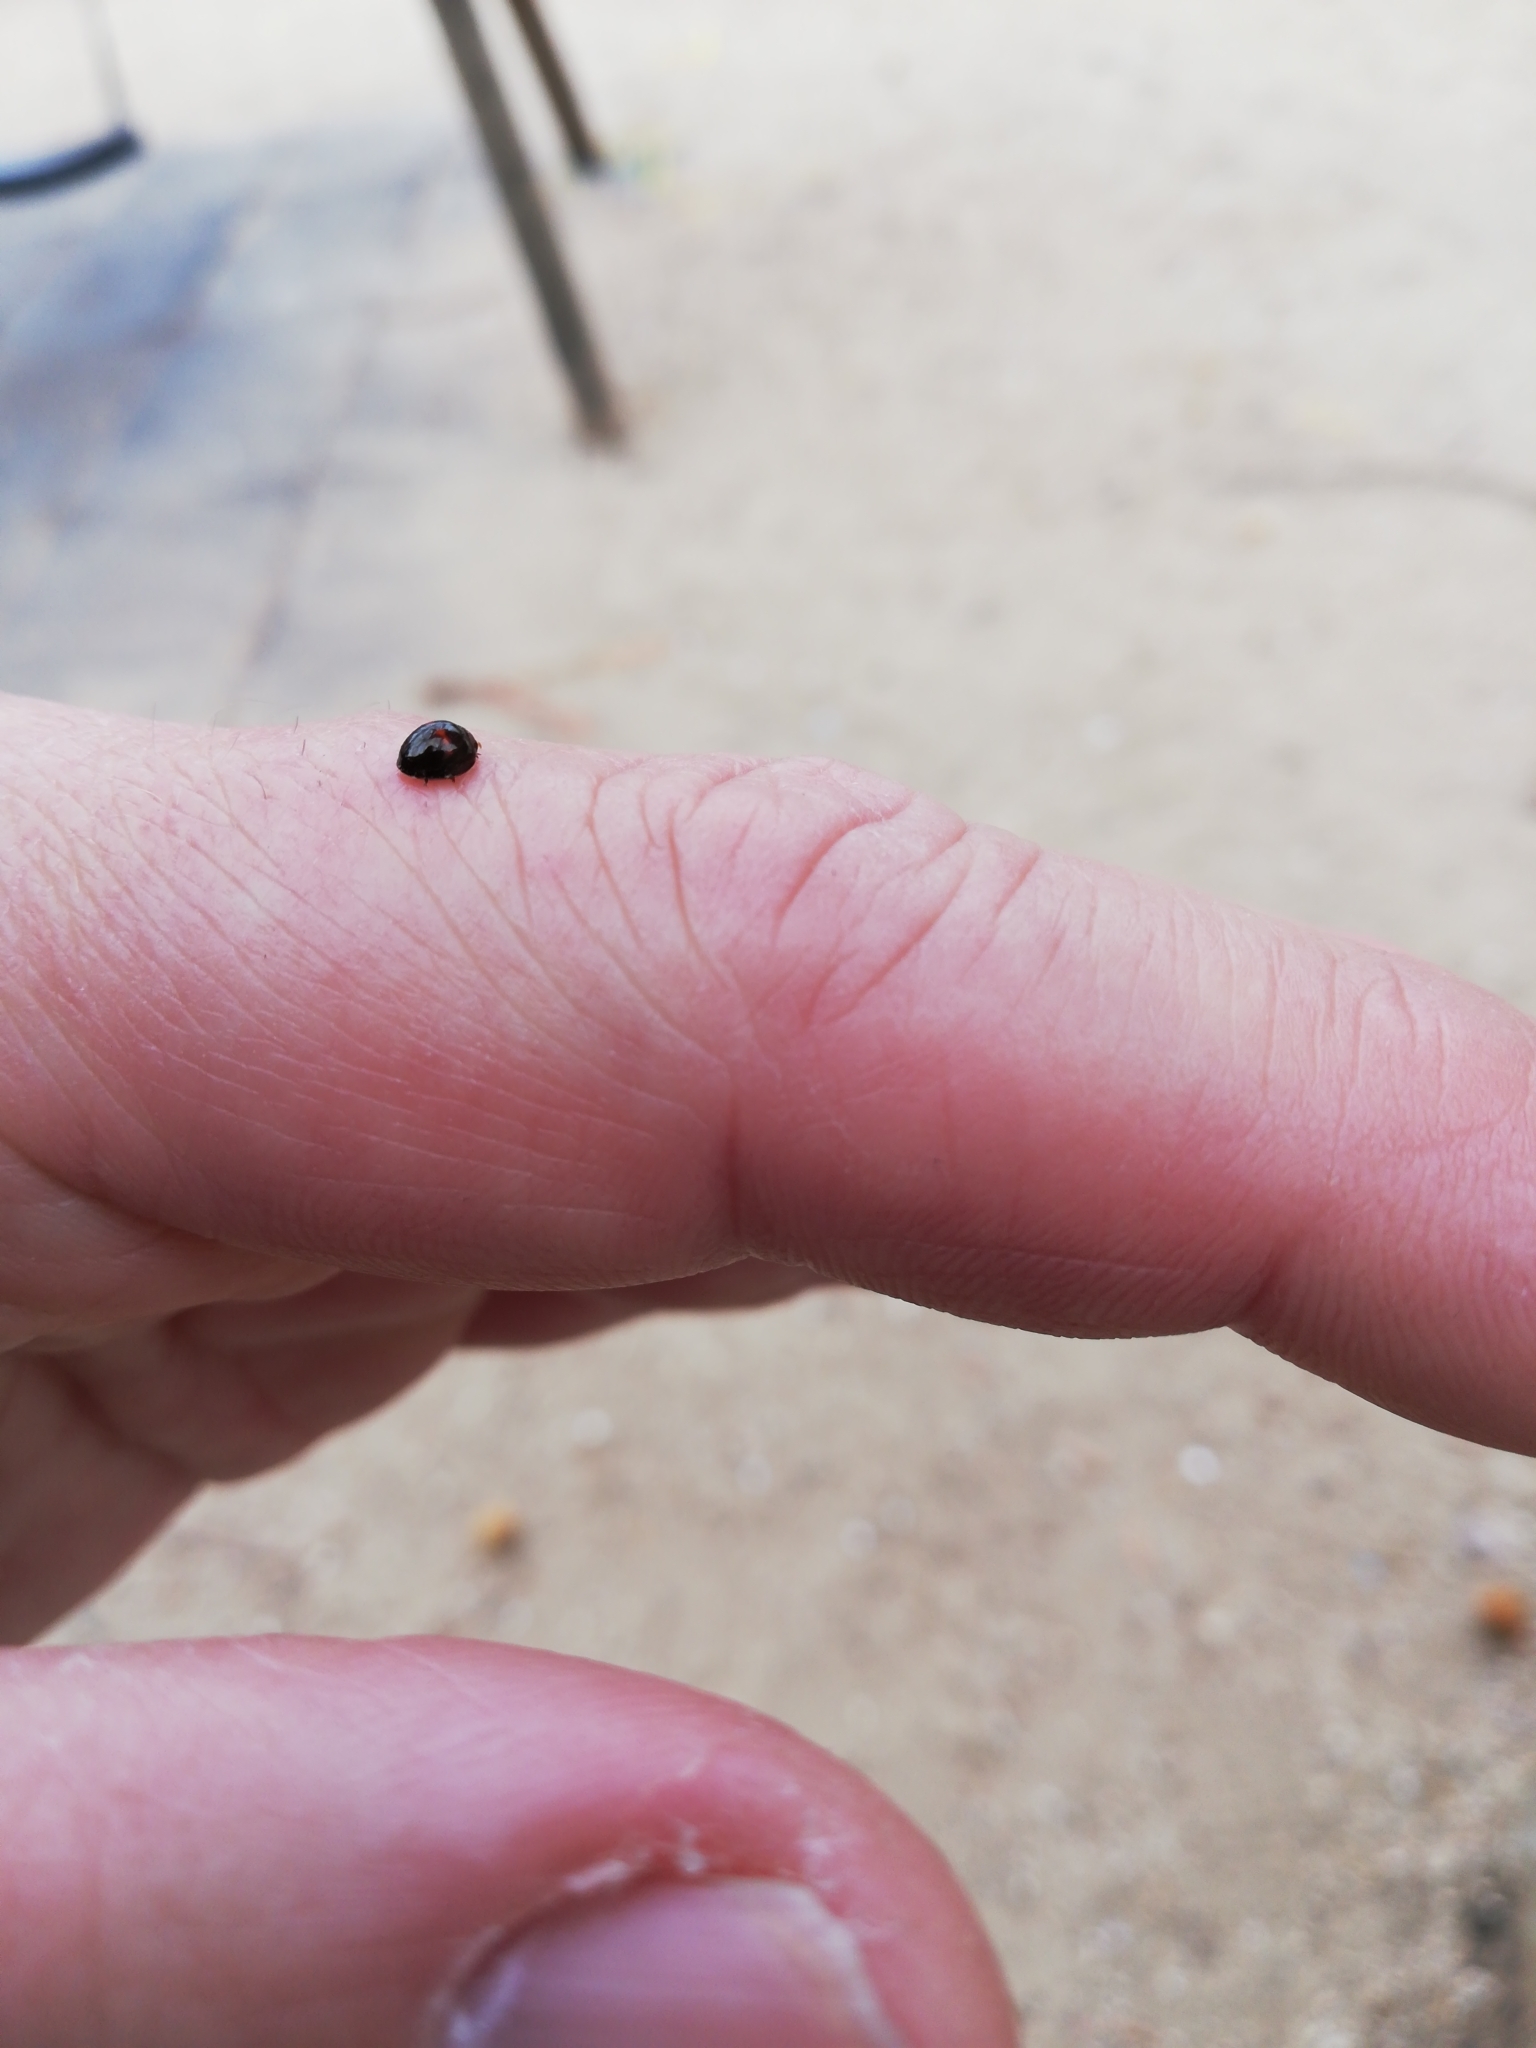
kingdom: Animalia
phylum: Arthropoda
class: Insecta
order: Coleoptera
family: Coccinellidae
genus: Chilocorus
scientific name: Chilocorus bipustulatus
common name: Heather ladybird
